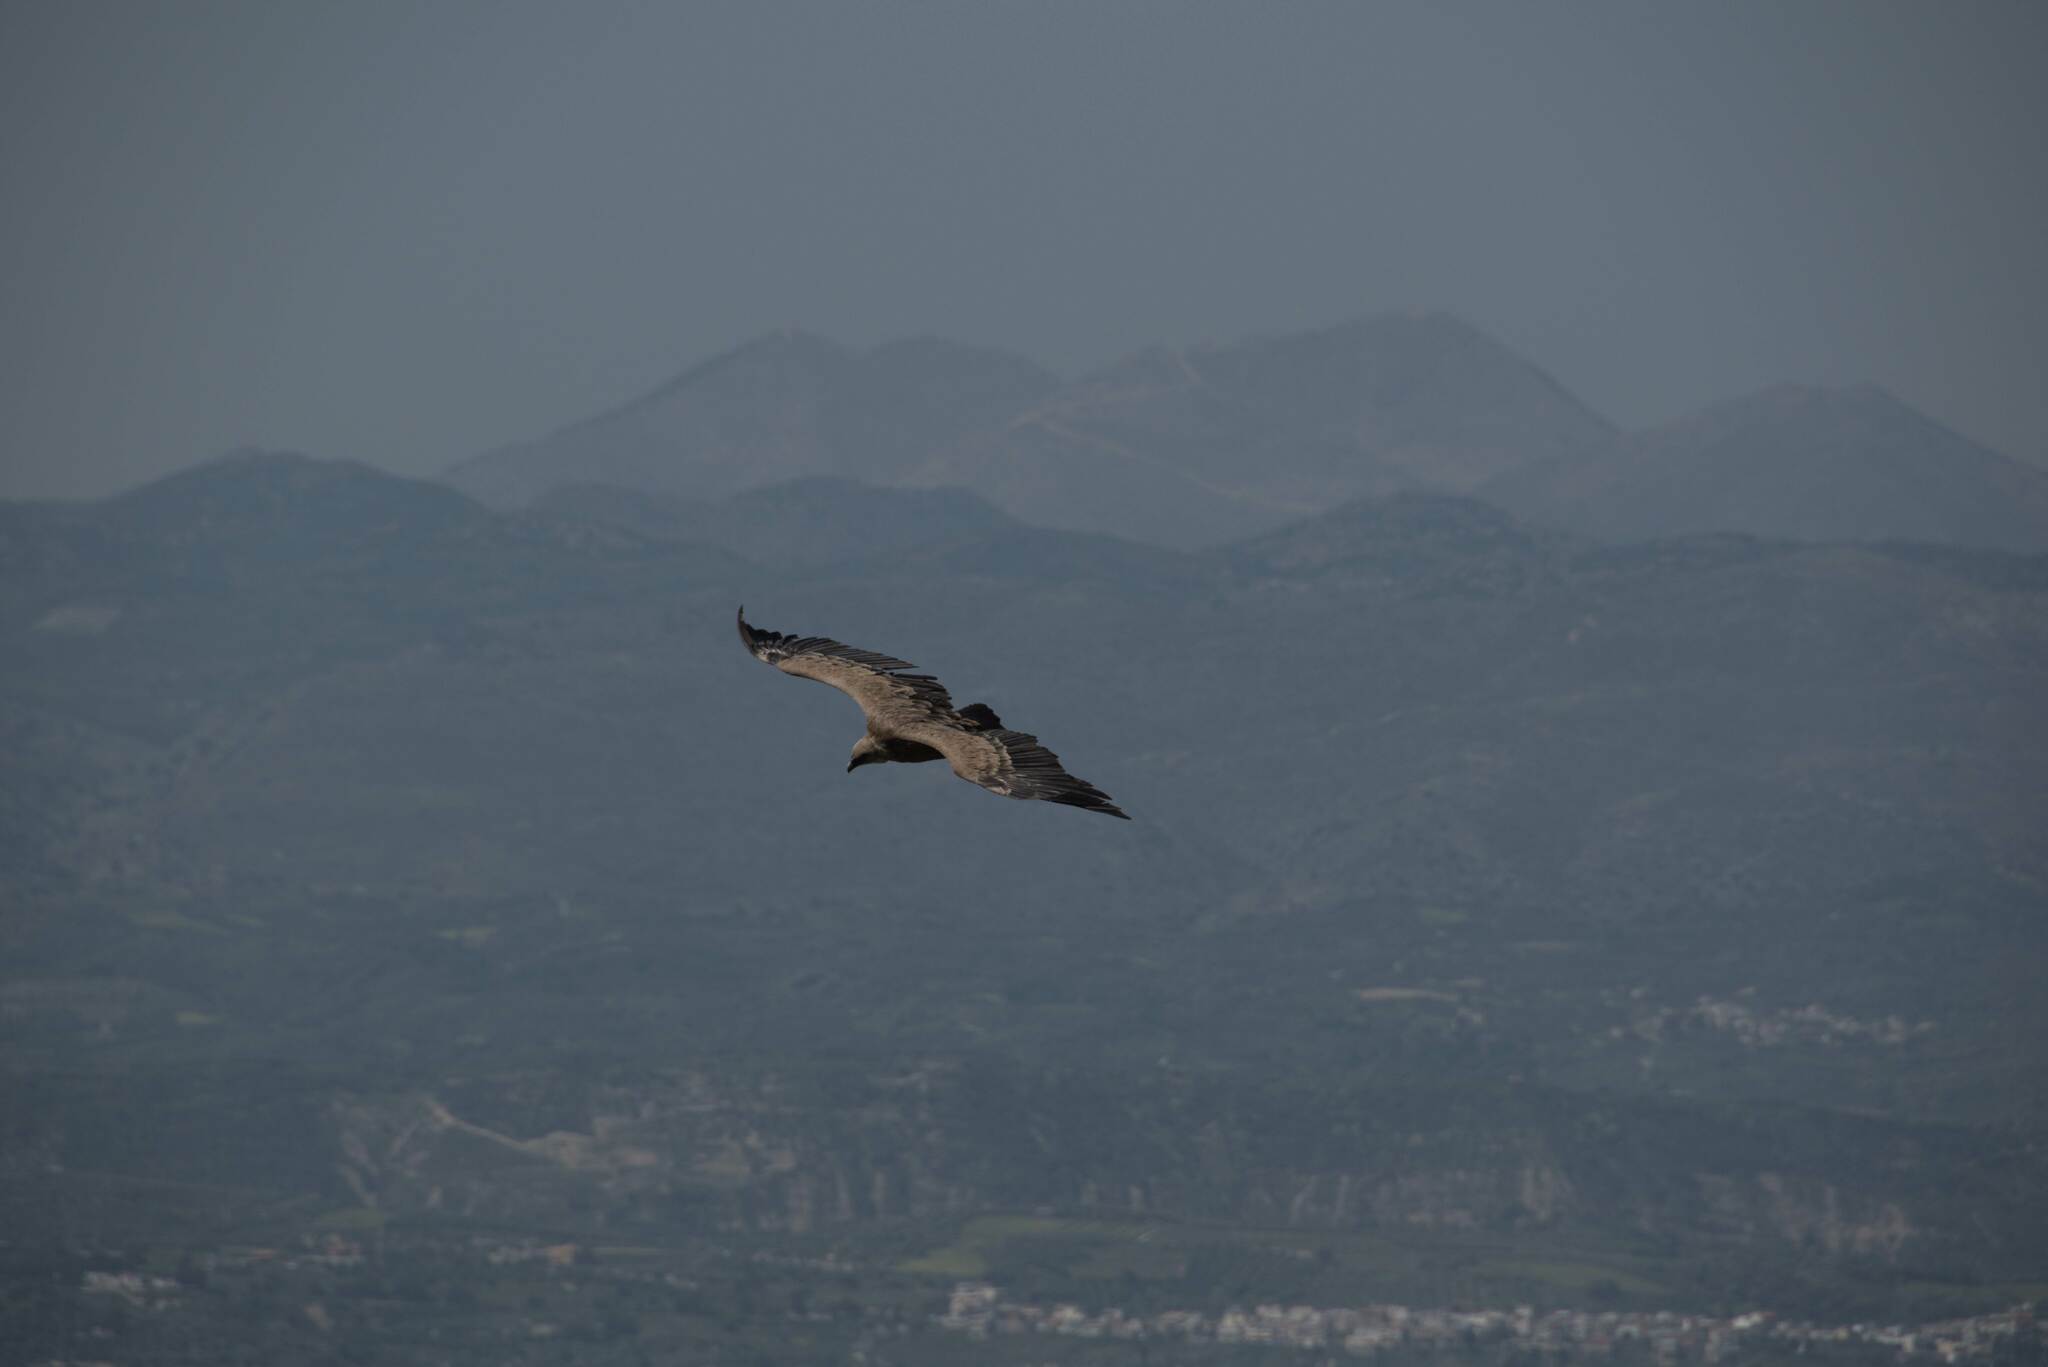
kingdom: Animalia
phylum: Chordata
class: Aves
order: Accipitriformes
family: Accipitridae
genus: Gyps
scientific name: Gyps fulvus
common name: Griffon vulture
